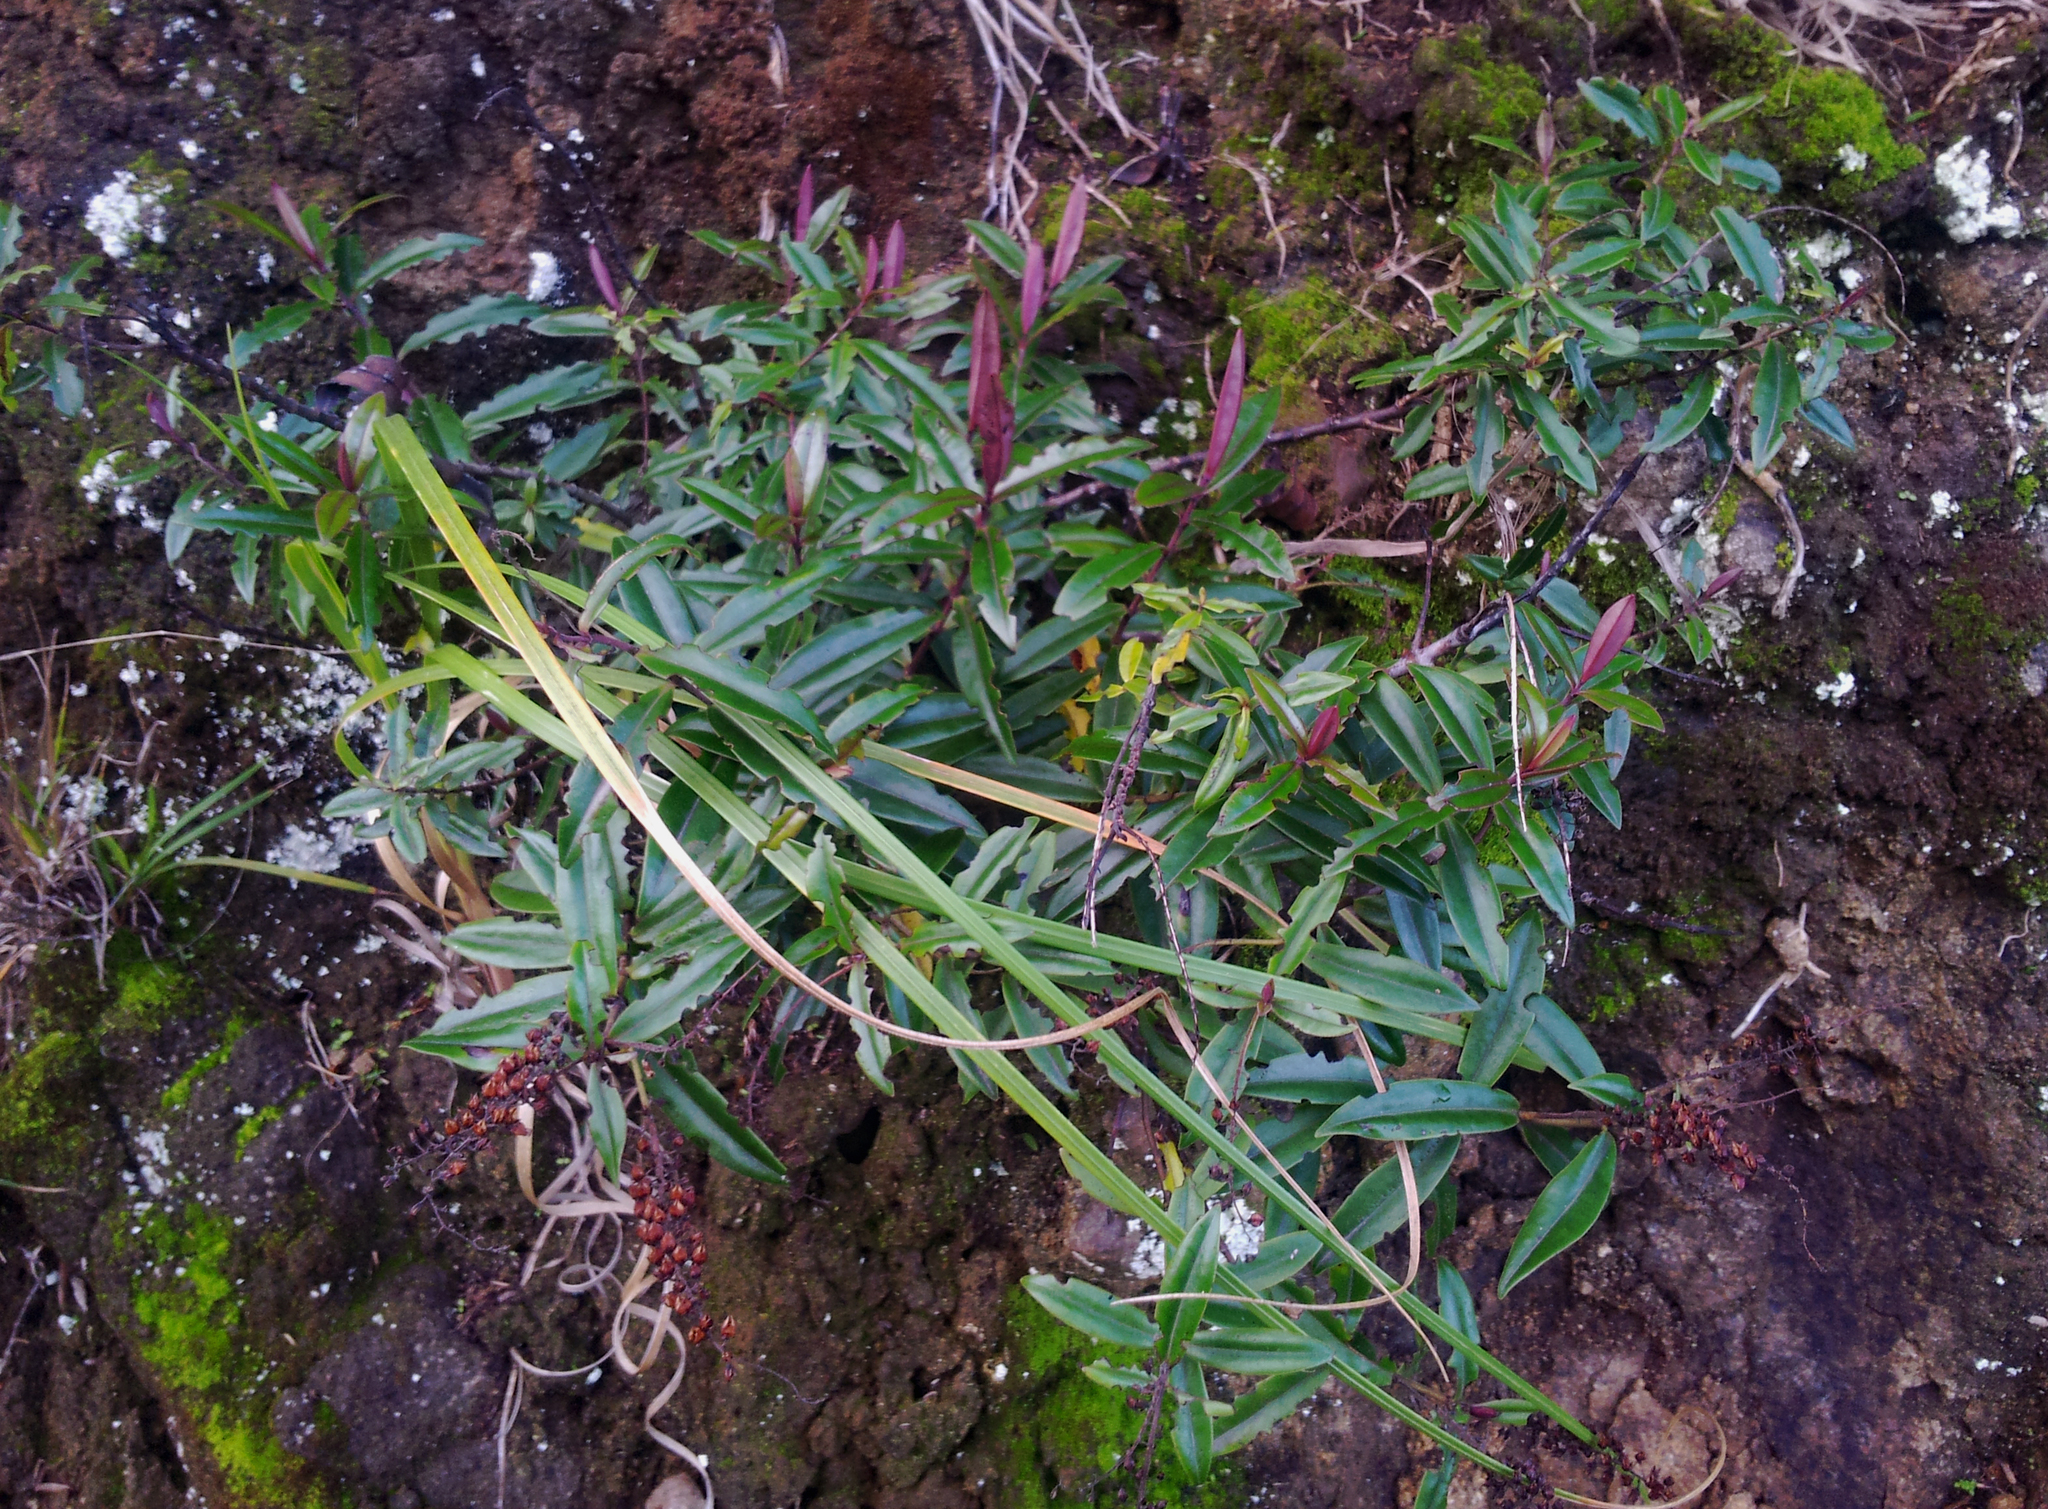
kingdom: Plantae
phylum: Tracheophyta
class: Magnoliopsida
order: Lamiales
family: Plantaginaceae
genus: Veronica
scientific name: Veronica bishopiana
